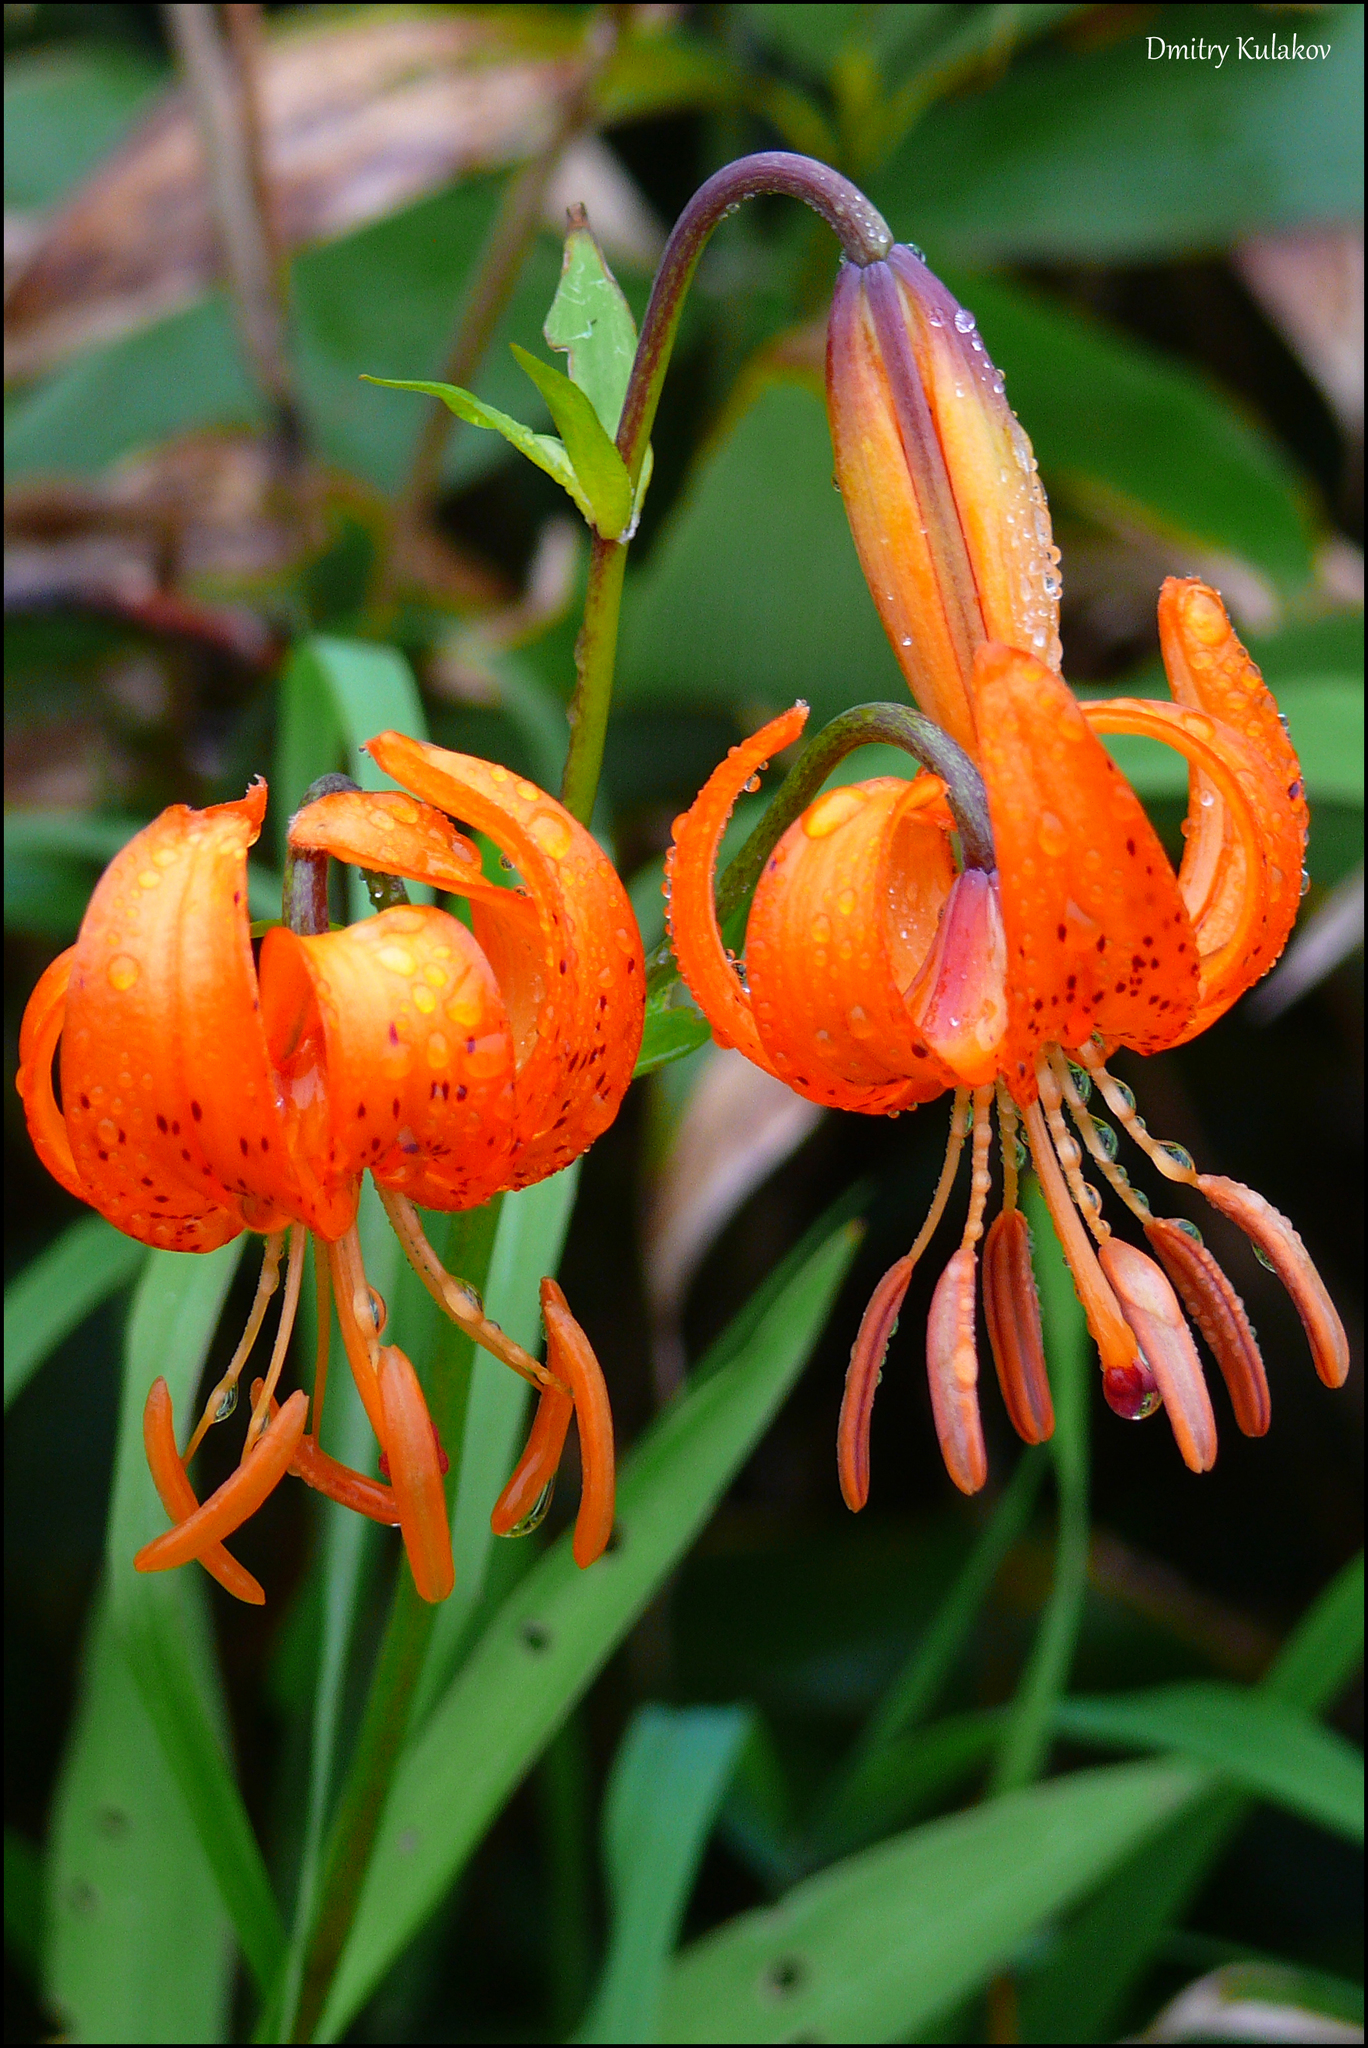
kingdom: Plantae
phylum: Tracheophyta
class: Liliopsida
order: Liliales
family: Liliaceae
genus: Lilium
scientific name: Lilium debile
